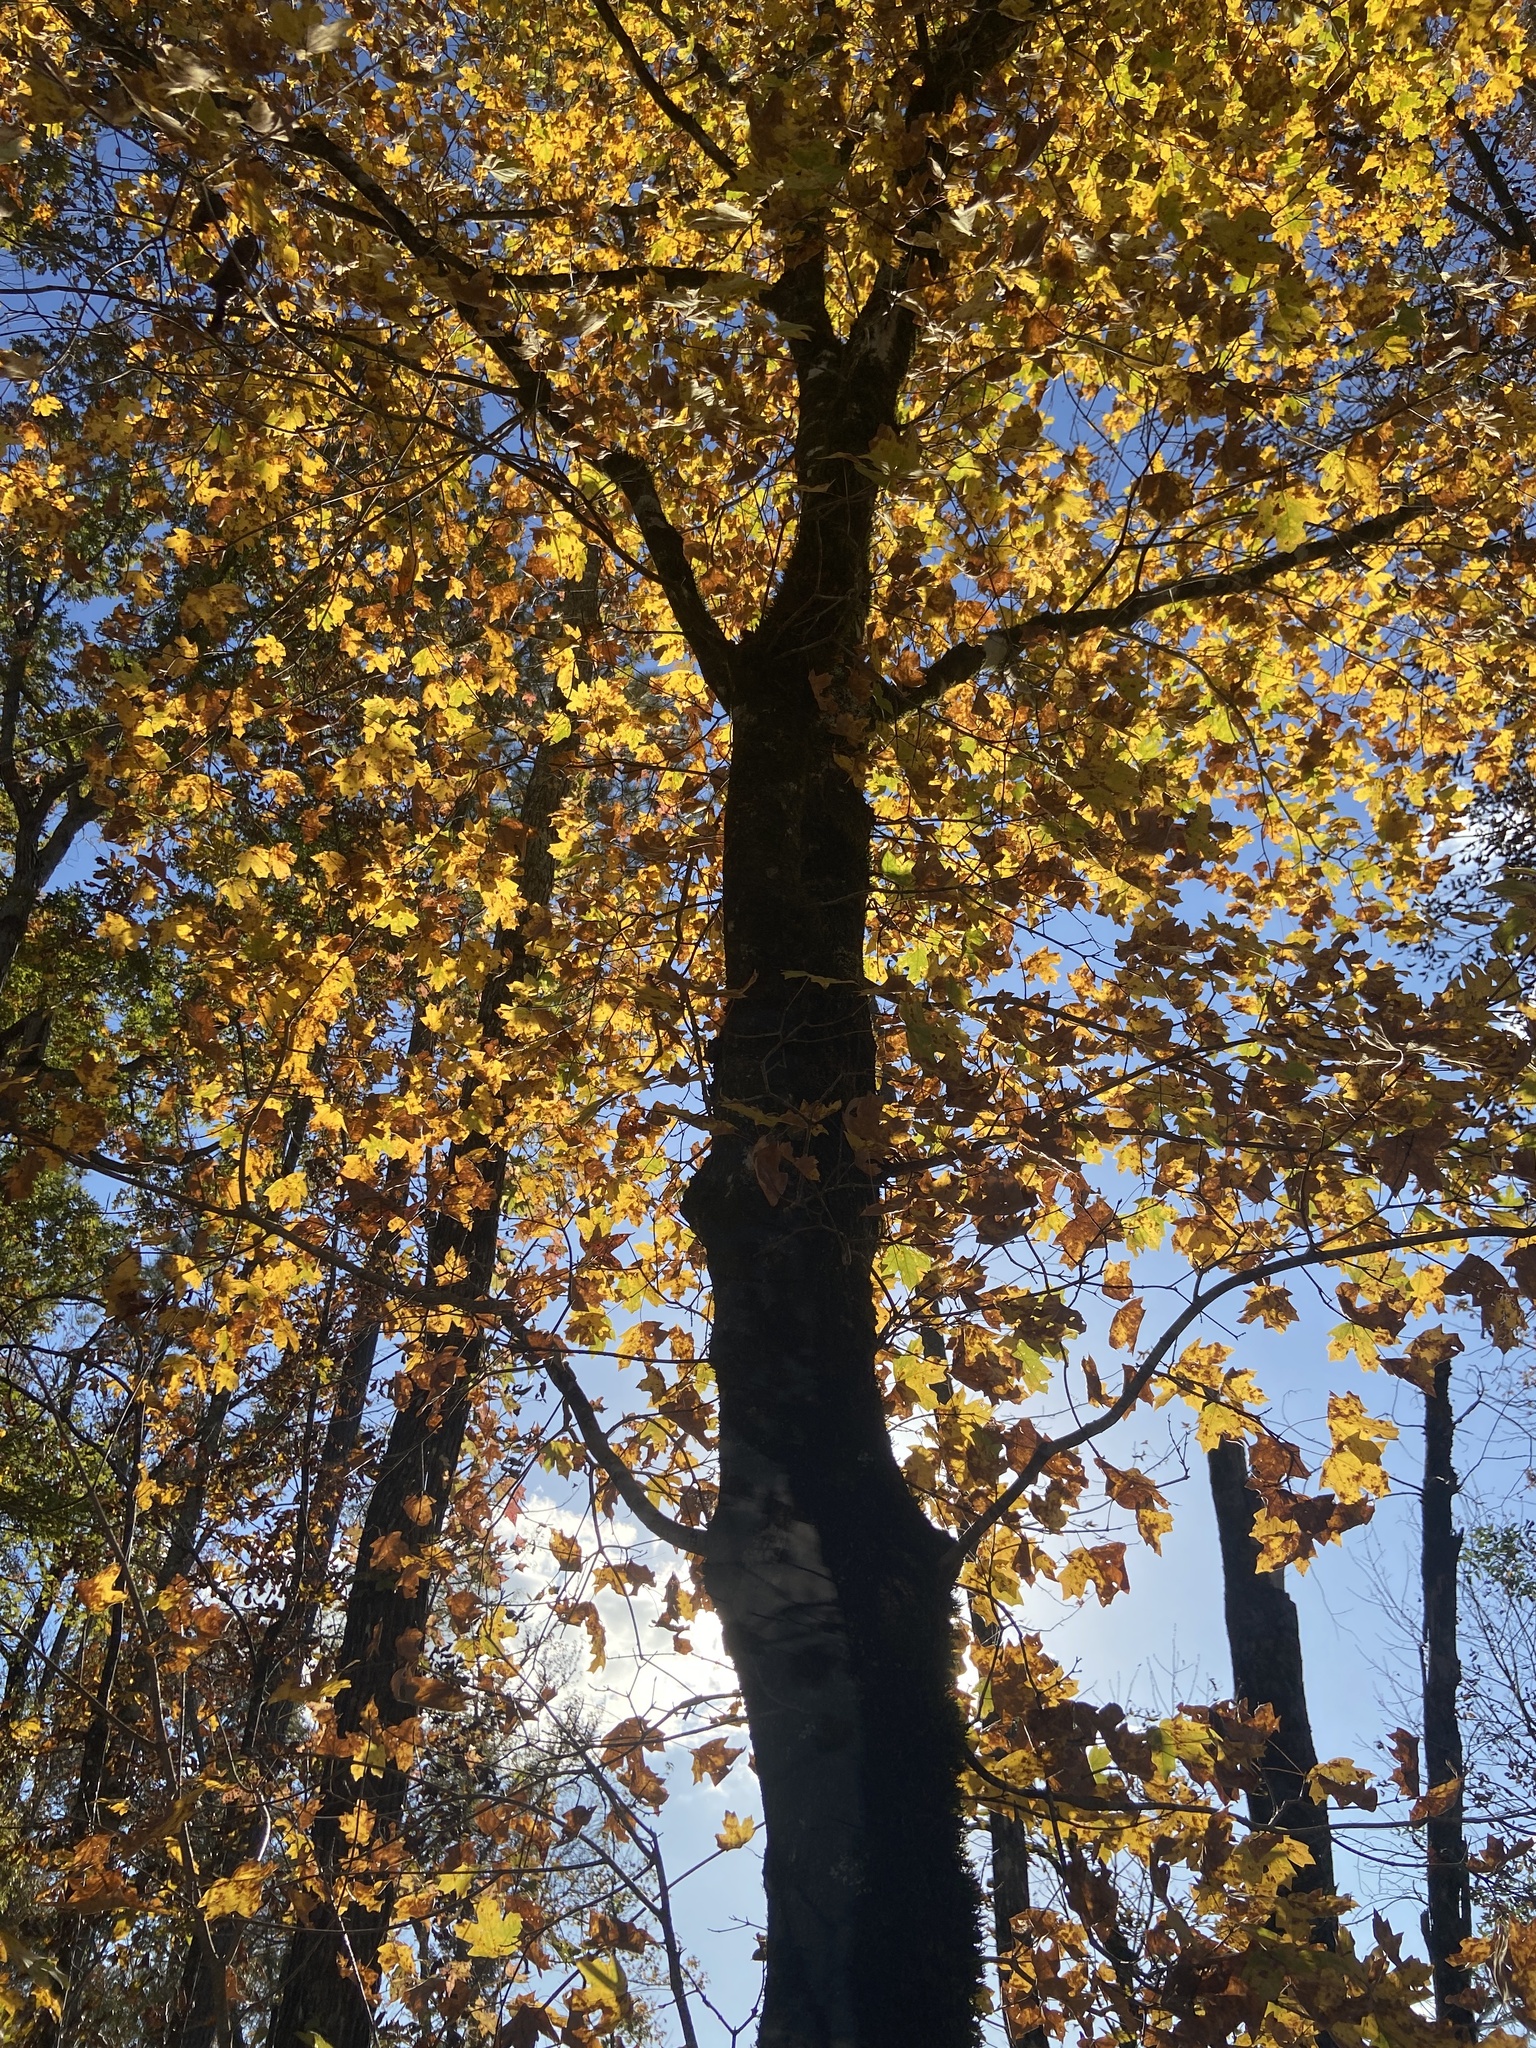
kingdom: Plantae
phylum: Tracheophyta
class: Magnoliopsida
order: Sapindales
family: Sapindaceae
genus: Acer
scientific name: Acer floridanum
